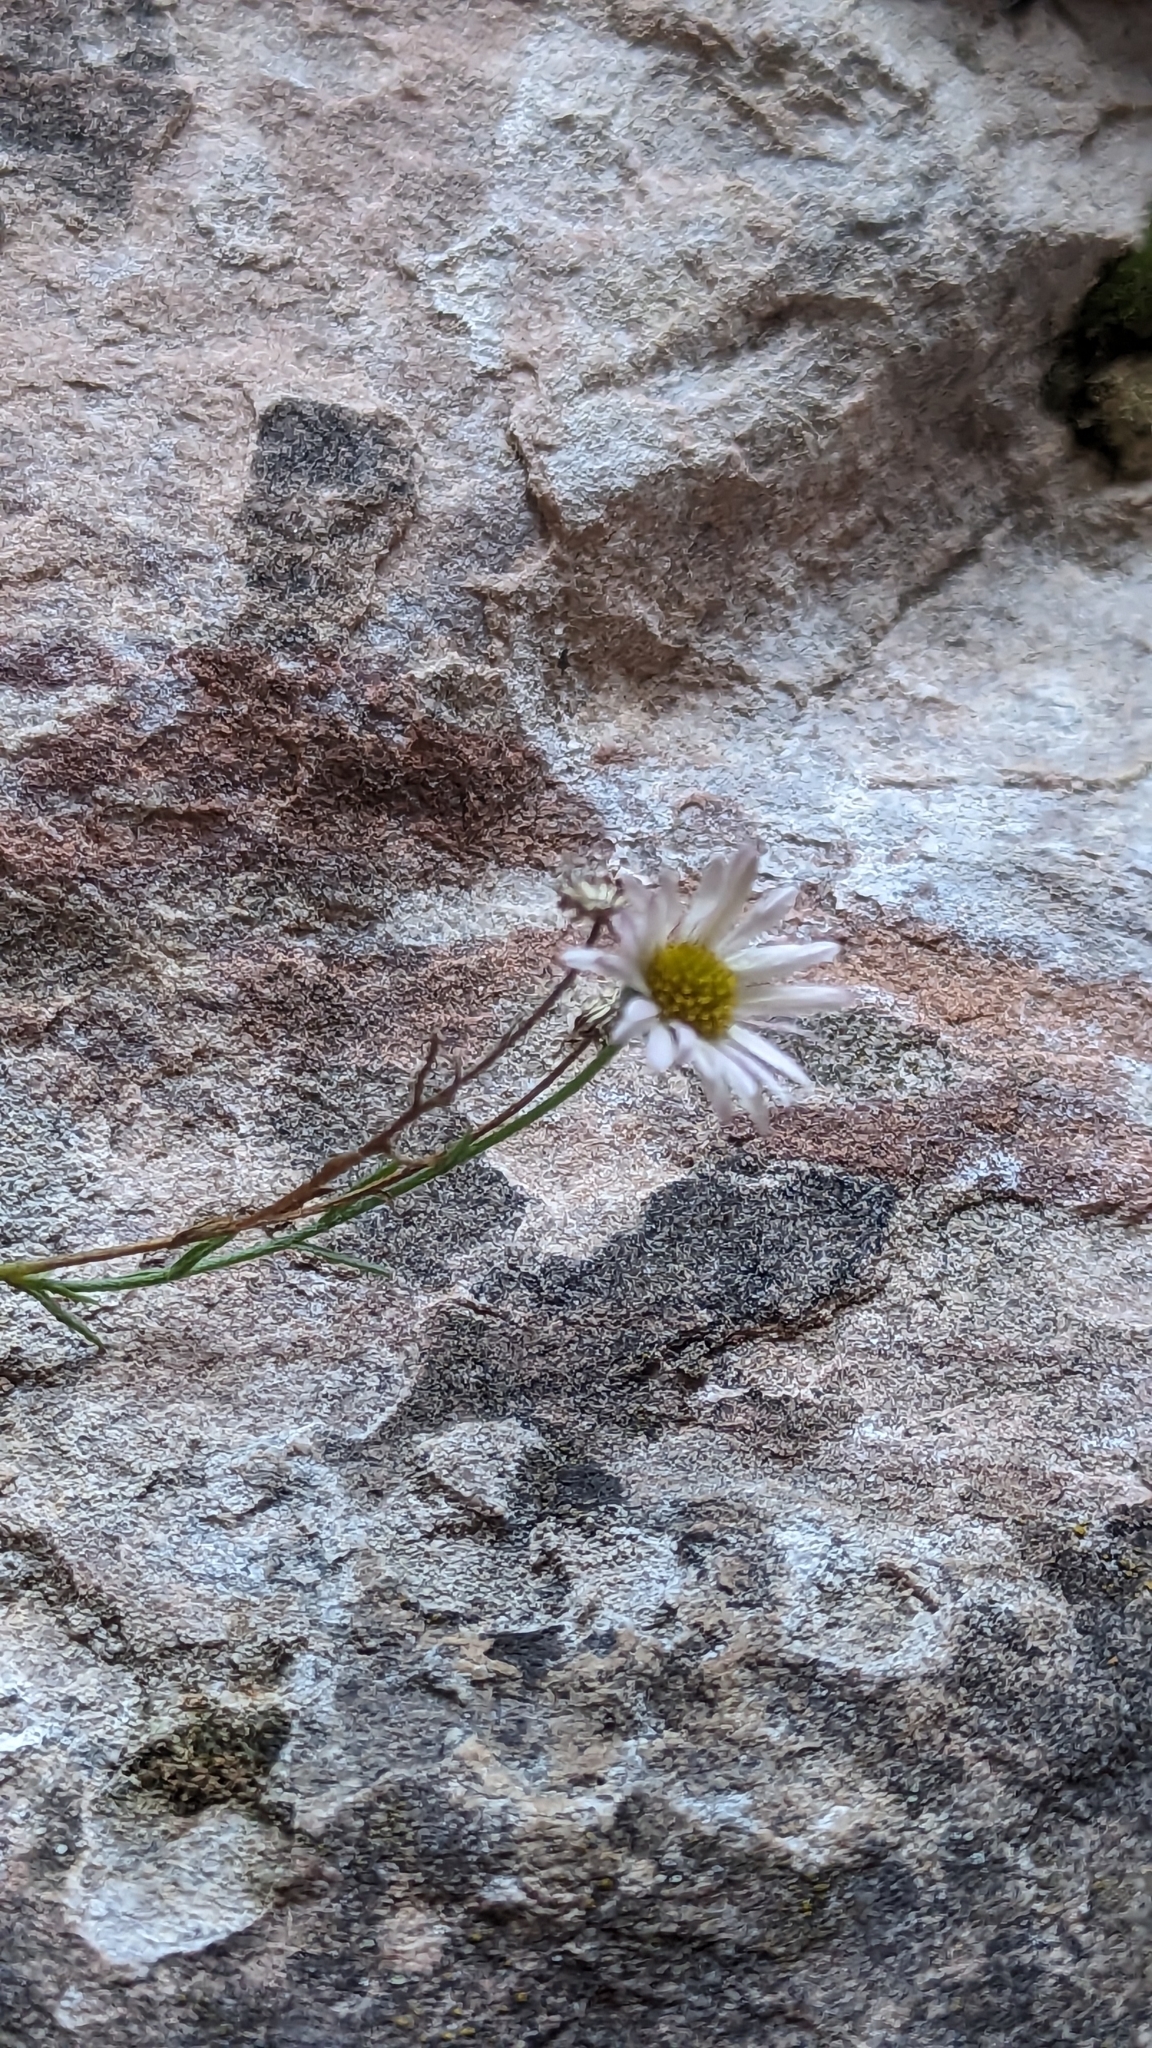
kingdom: Plantae
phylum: Tracheophyta
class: Magnoliopsida
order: Asterales
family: Asteraceae
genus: Erigeron
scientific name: Erigeron sionis
